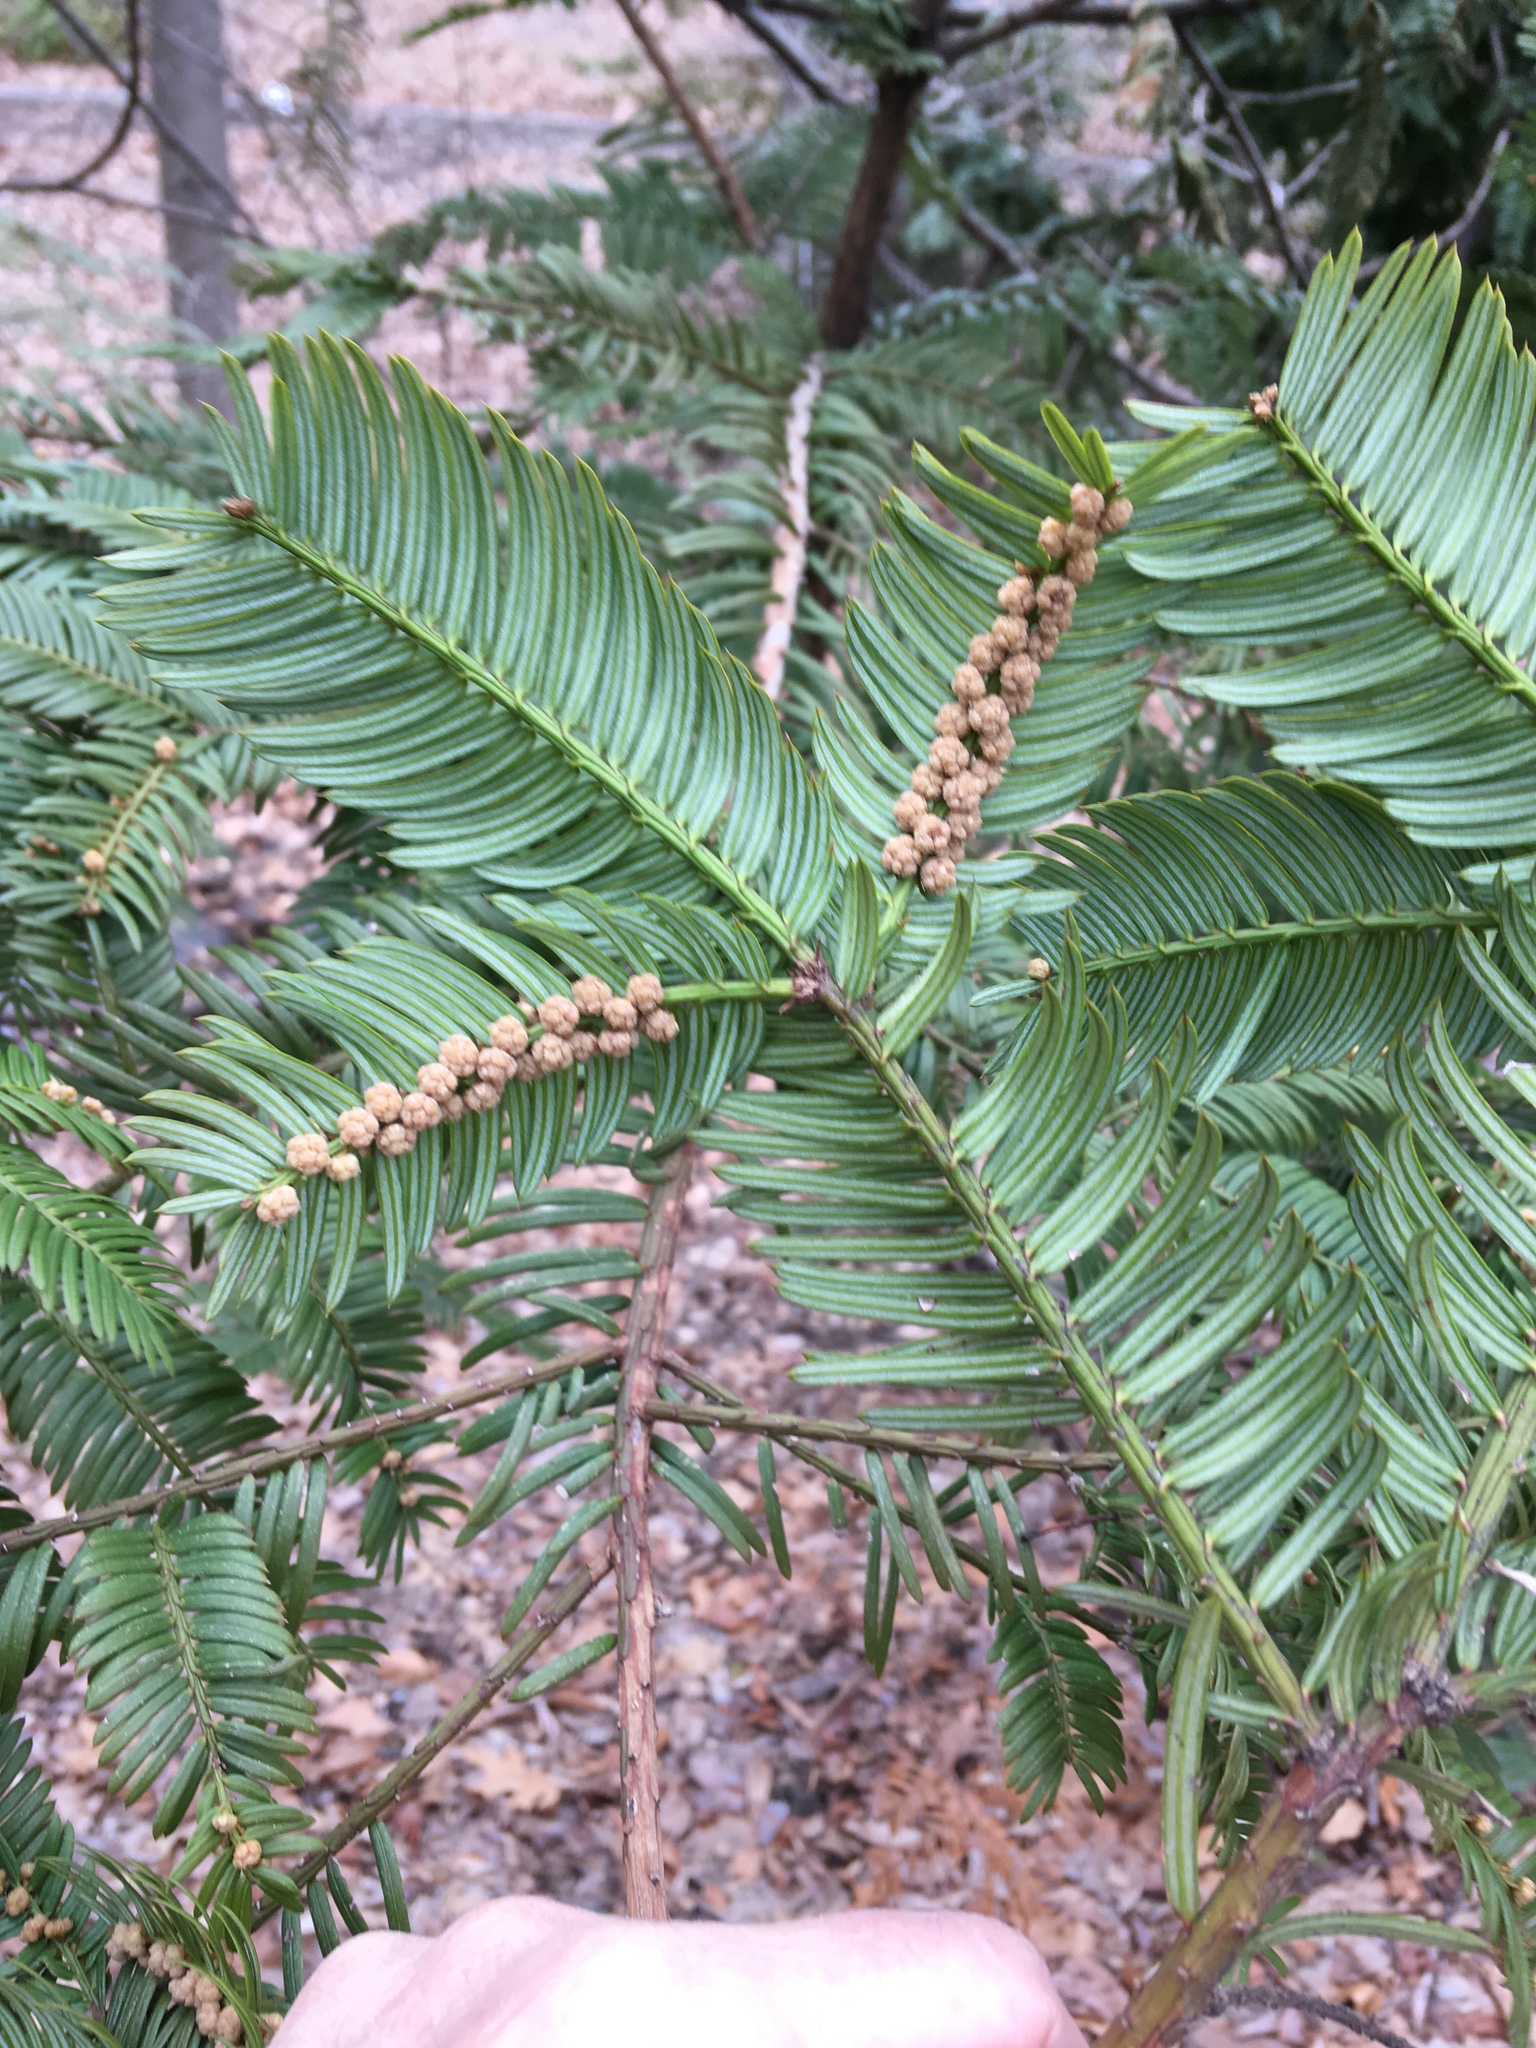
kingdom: Plantae
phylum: Tracheophyta
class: Pinopsida
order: Pinales
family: Cephalotaxaceae
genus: Cephalotaxus
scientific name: Cephalotaxus harringtonia
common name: Japanese plum-yew
